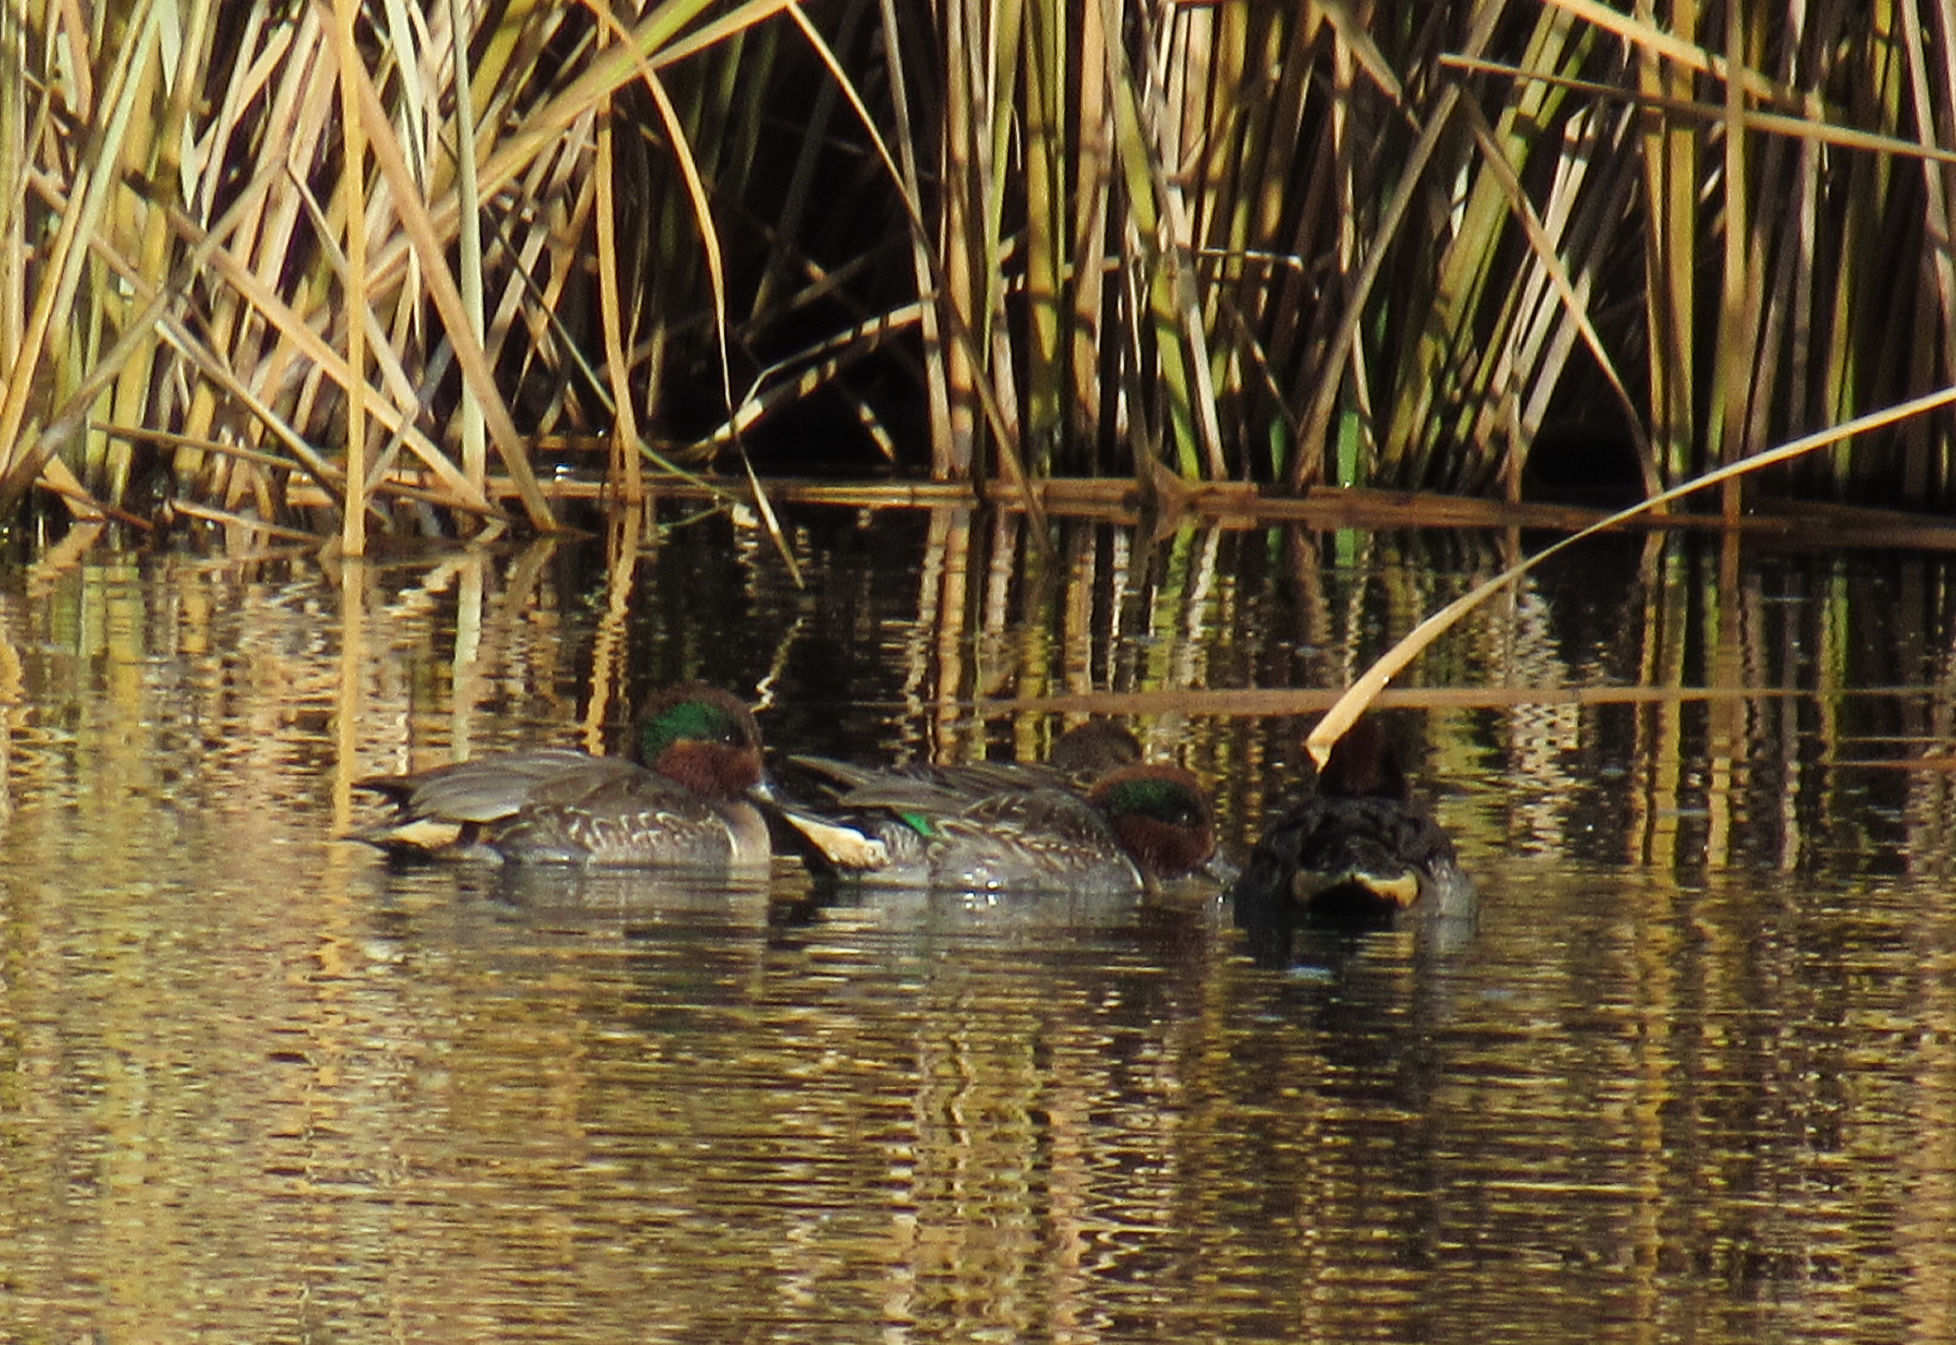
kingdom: Animalia
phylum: Chordata
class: Aves
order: Anseriformes
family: Anatidae
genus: Anas
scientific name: Anas crecca
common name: Eurasian teal
